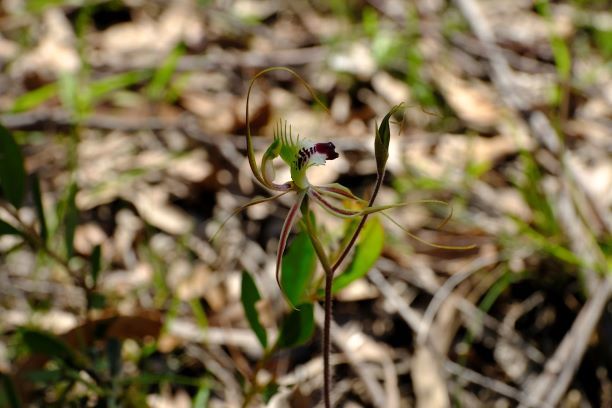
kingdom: Plantae
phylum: Tracheophyta
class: Liliopsida
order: Asparagales
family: Orchidaceae
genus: Caladenia
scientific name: Caladenia tentaculata
